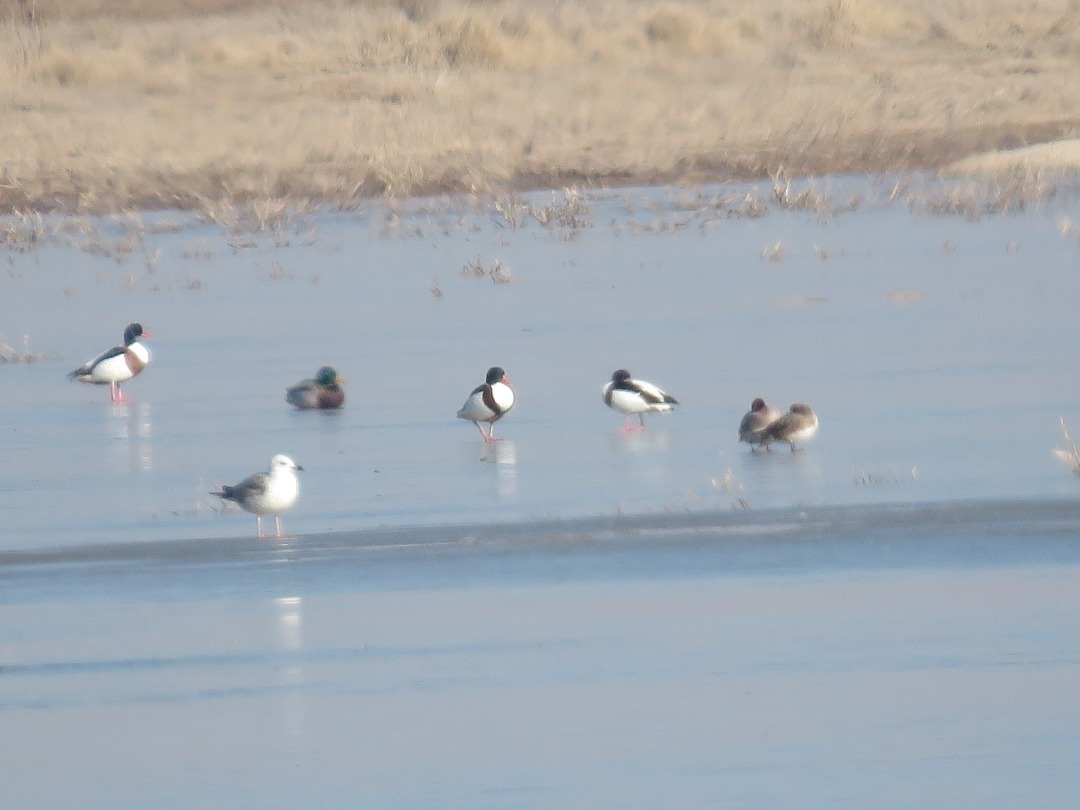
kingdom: Animalia
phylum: Chordata
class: Aves
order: Anseriformes
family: Anatidae
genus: Tadorna
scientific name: Tadorna tadorna
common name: Common shelduck
